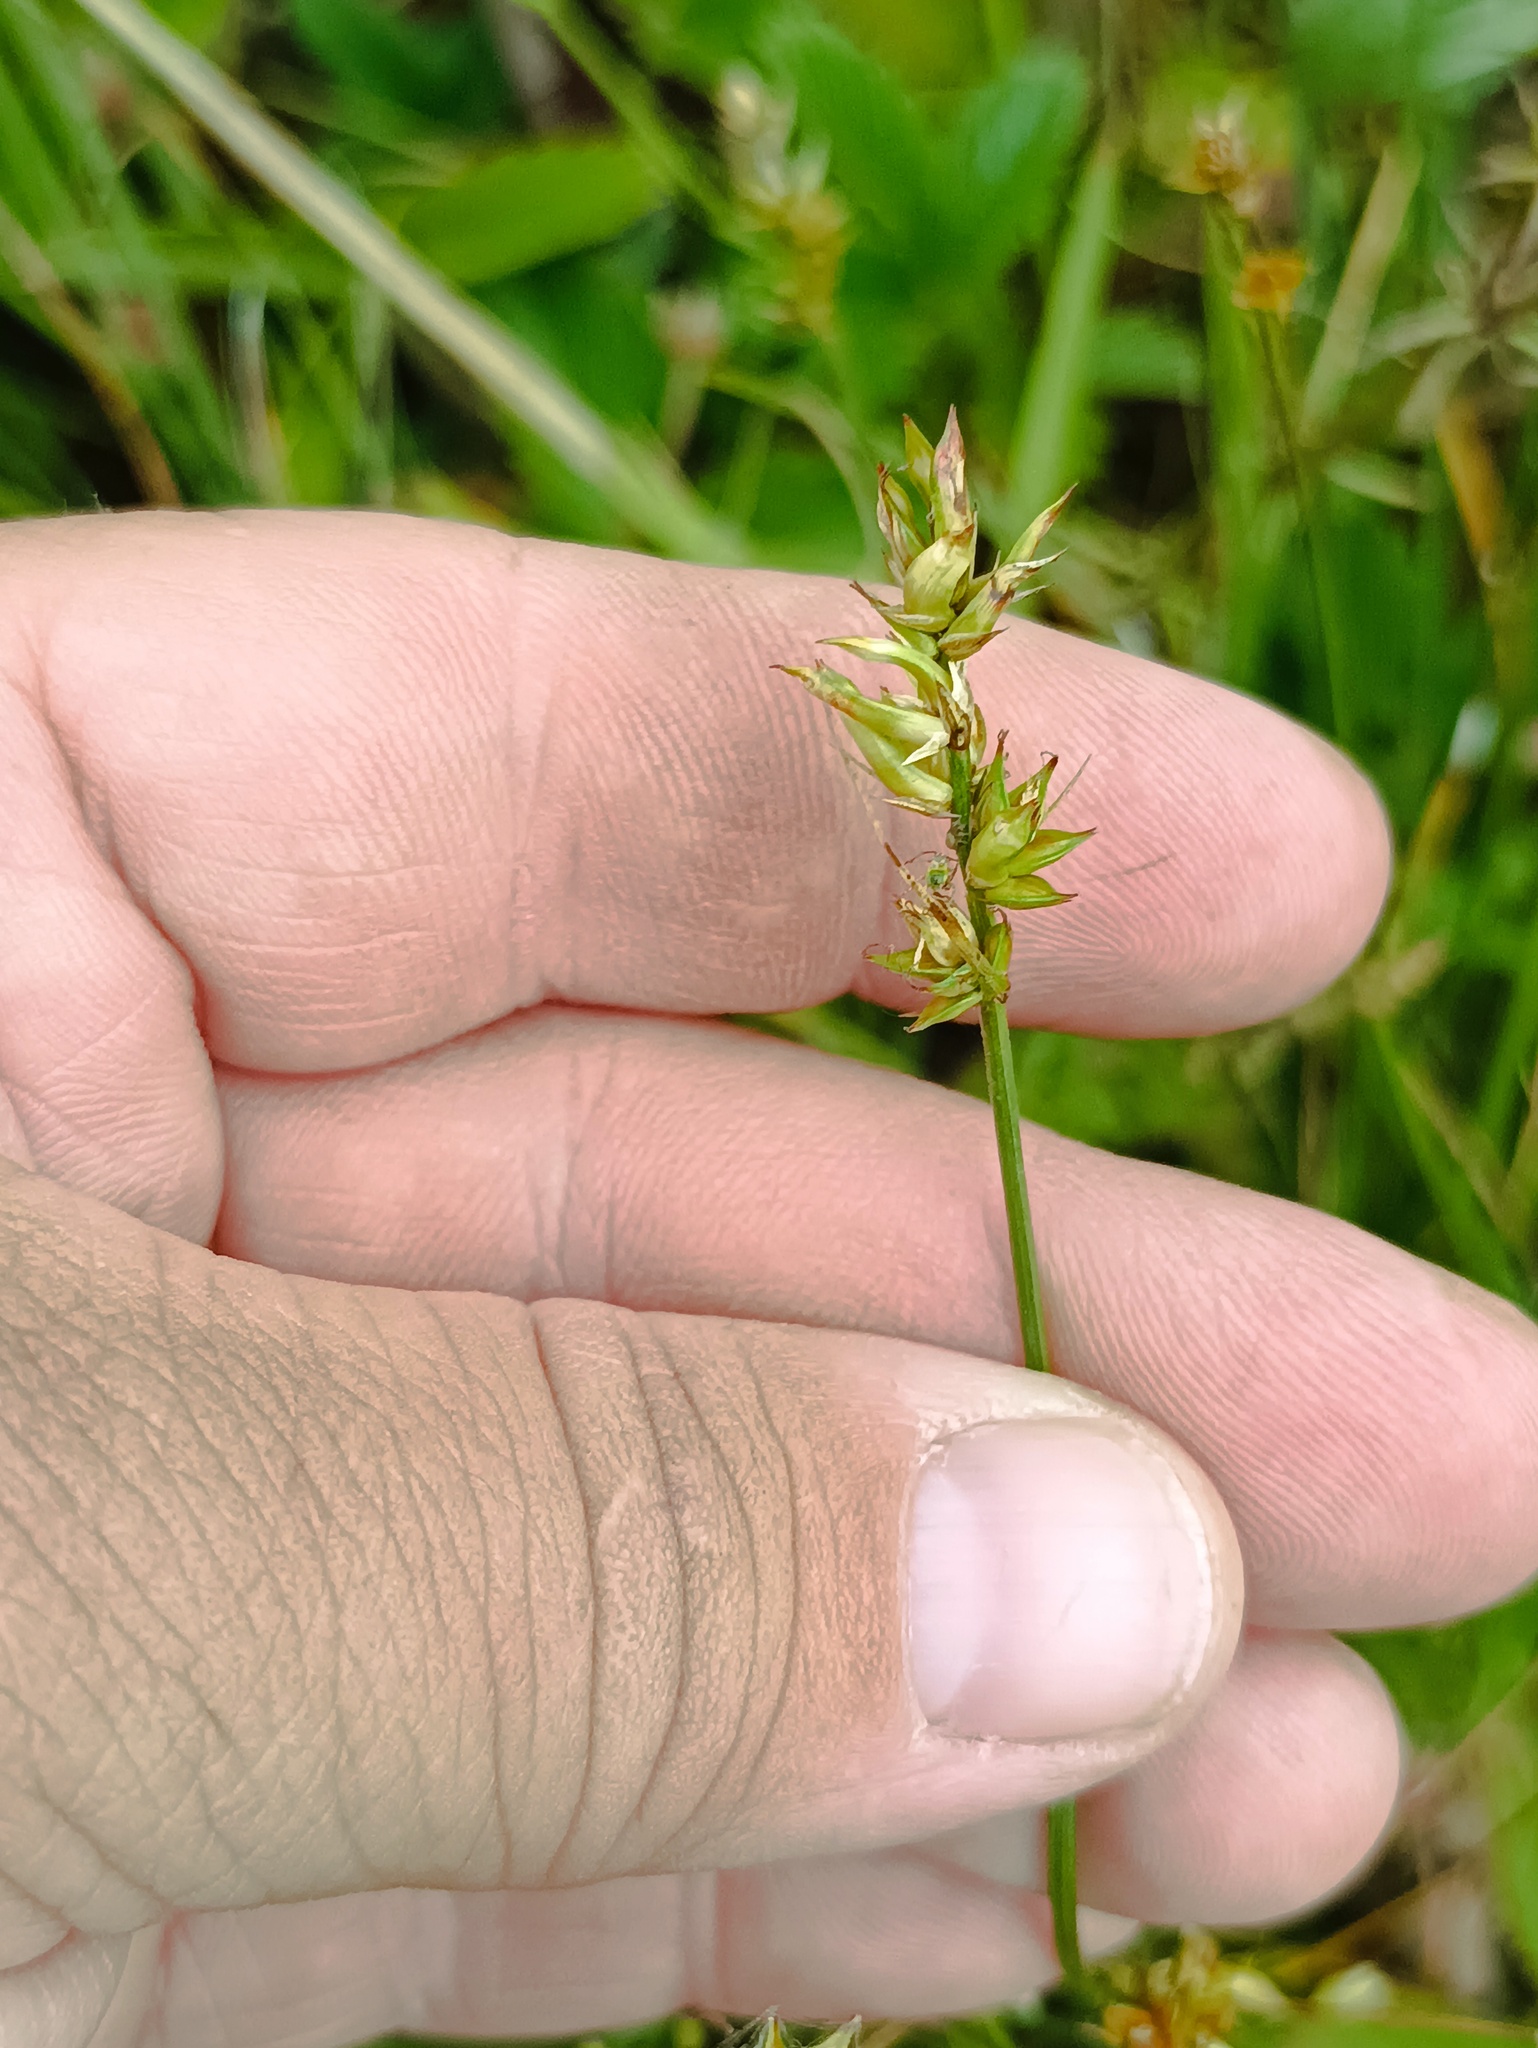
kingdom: Plantae
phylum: Tracheophyta
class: Liliopsida
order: Poales
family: Cyperaceae
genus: Carex
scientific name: Carex spicata
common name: Spiked sedge
